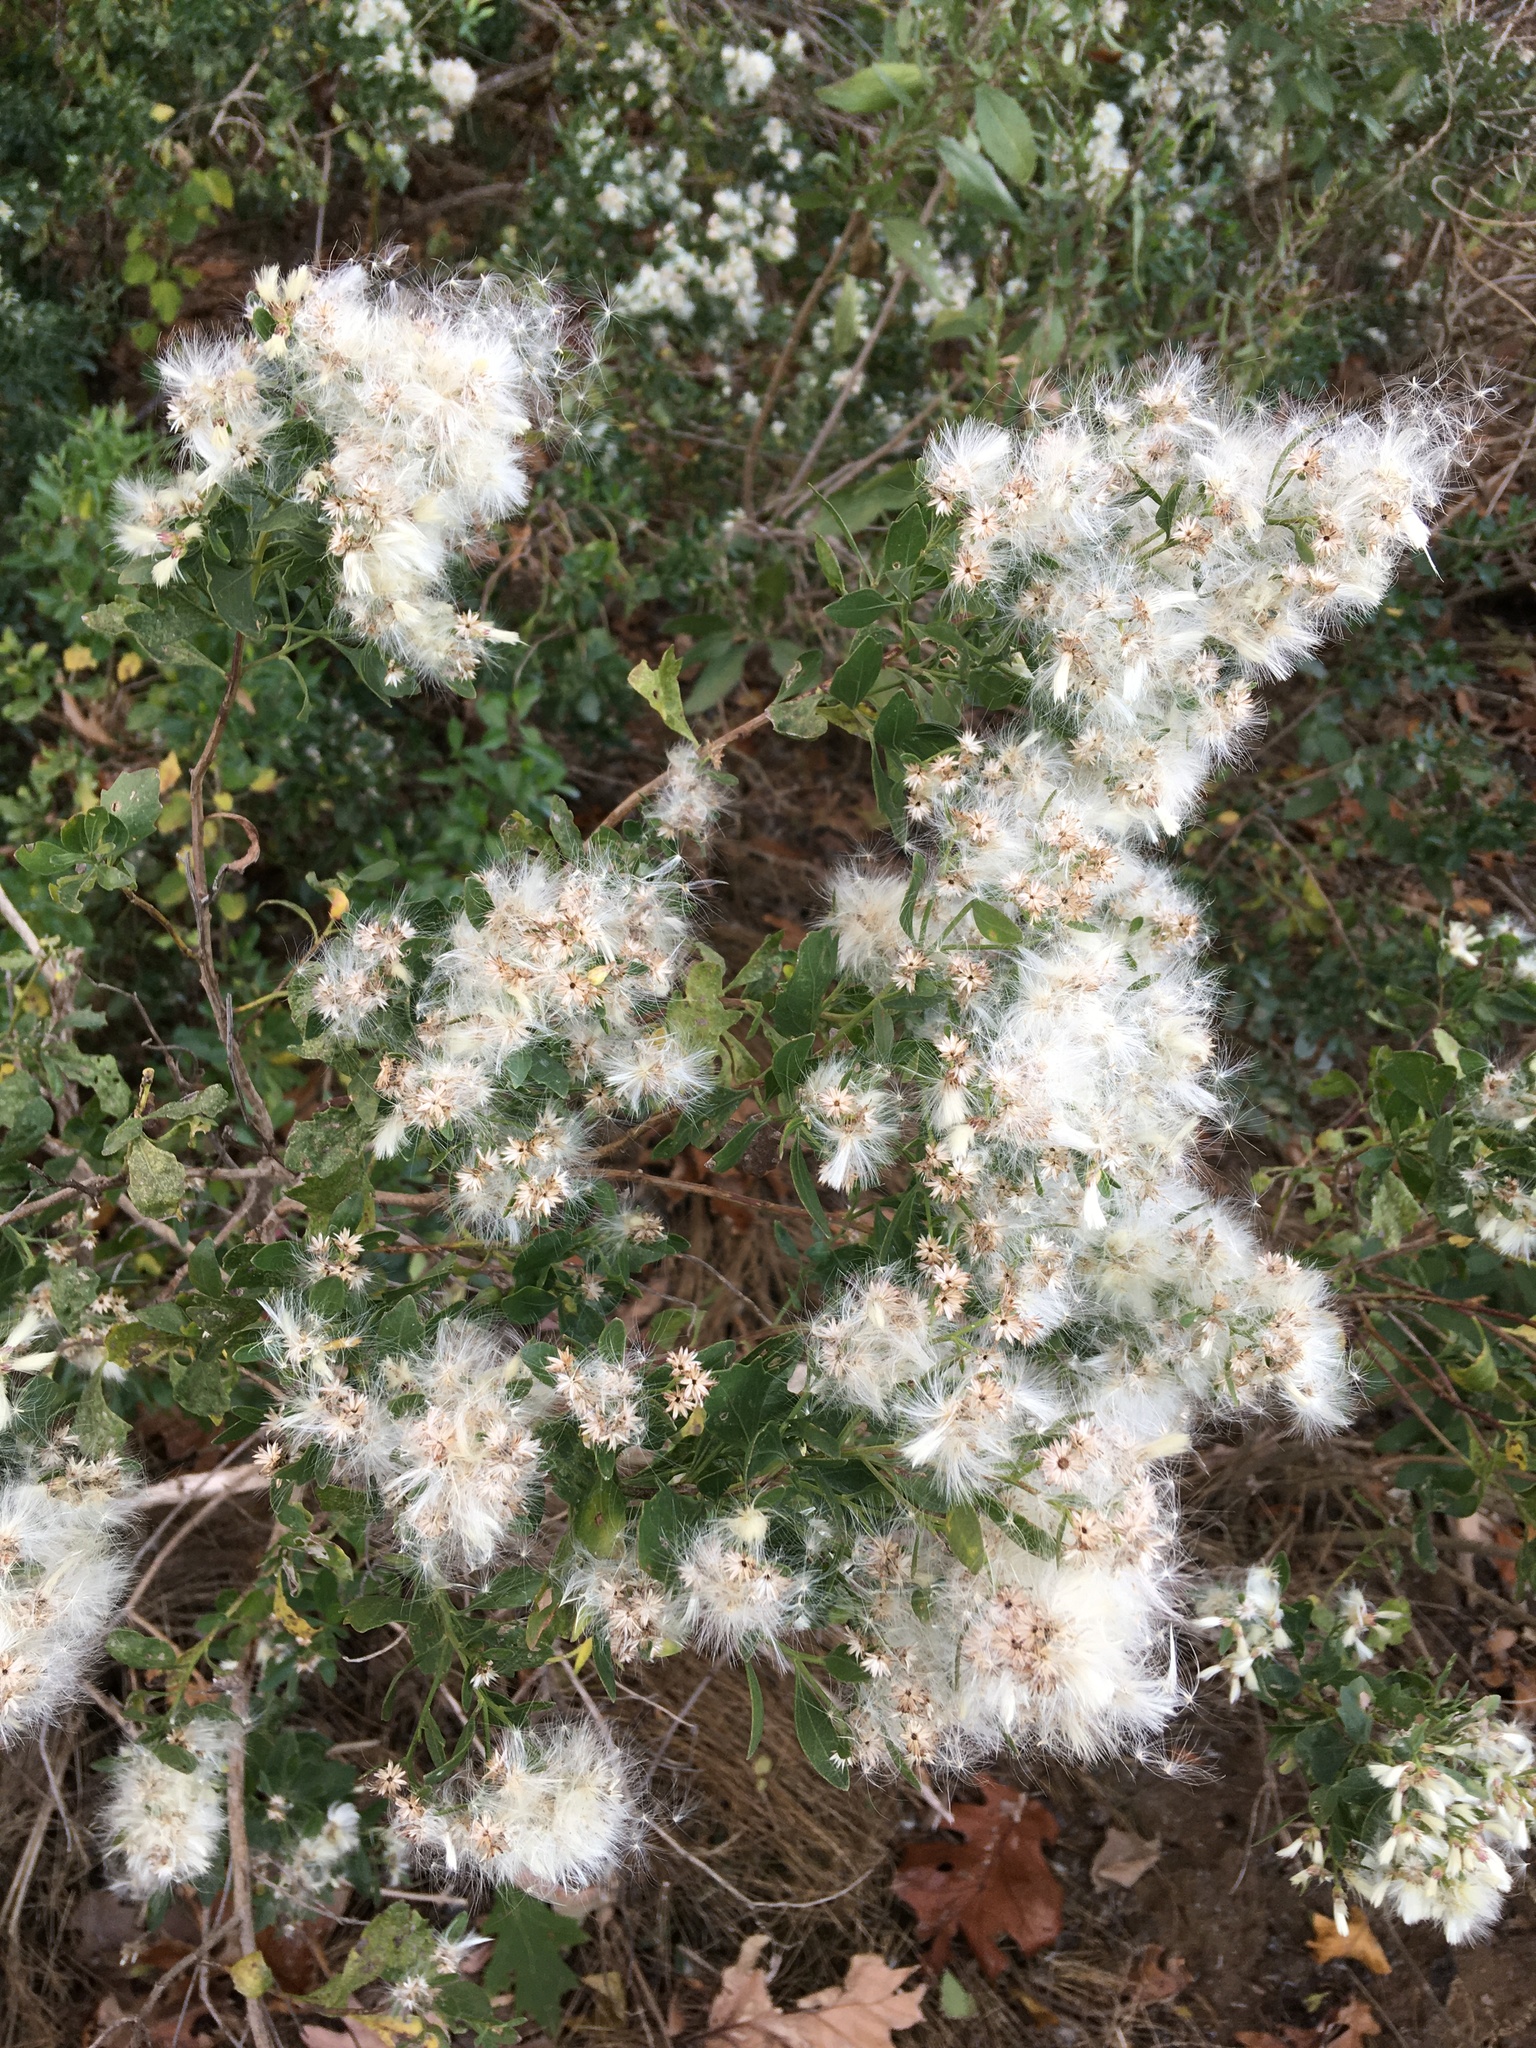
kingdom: Plantae
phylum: Tracheophyta
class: Magnoliopsida
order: Asterales
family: Asteraceae
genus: Baccharis
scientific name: Baccharis halimifolia
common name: Eastern baccharis
